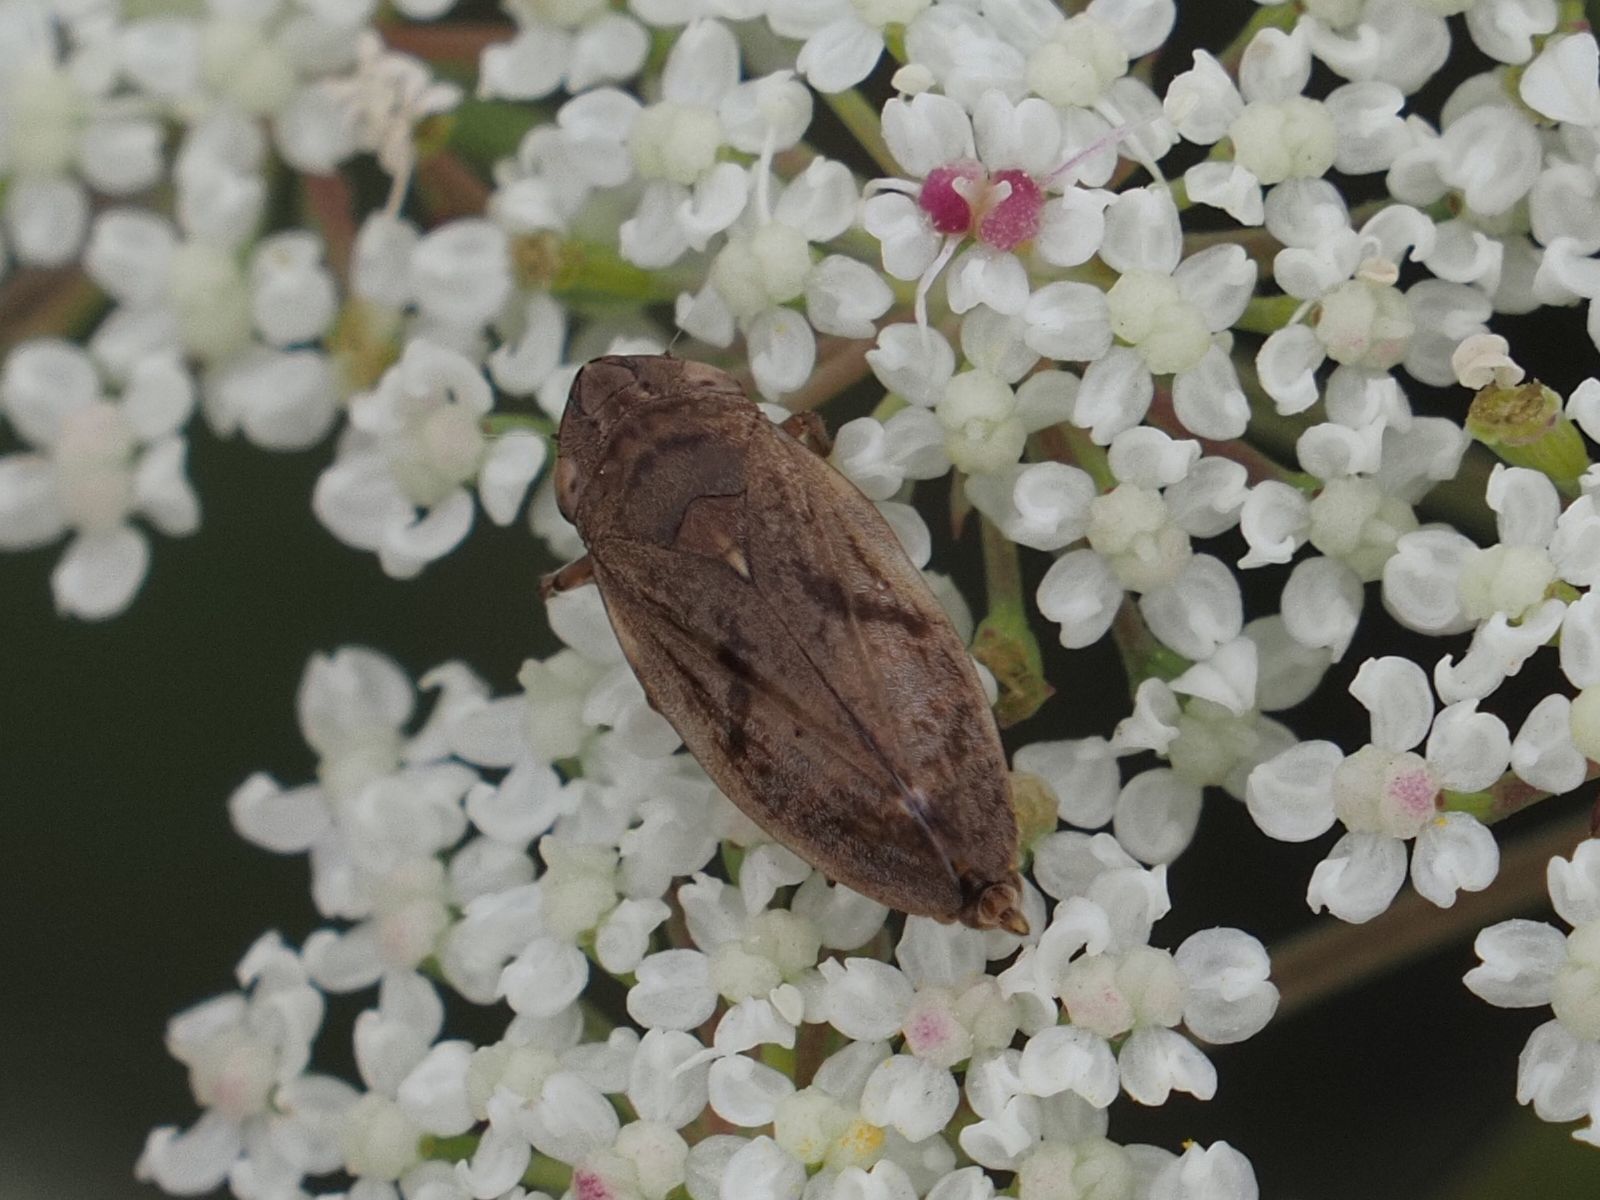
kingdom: Animalia
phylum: Arthropoda
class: Insecta
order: Hemiptera
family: Aphrophoridae
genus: Philaenus
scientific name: Philaenus spumarius
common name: Meadow spittlebug
